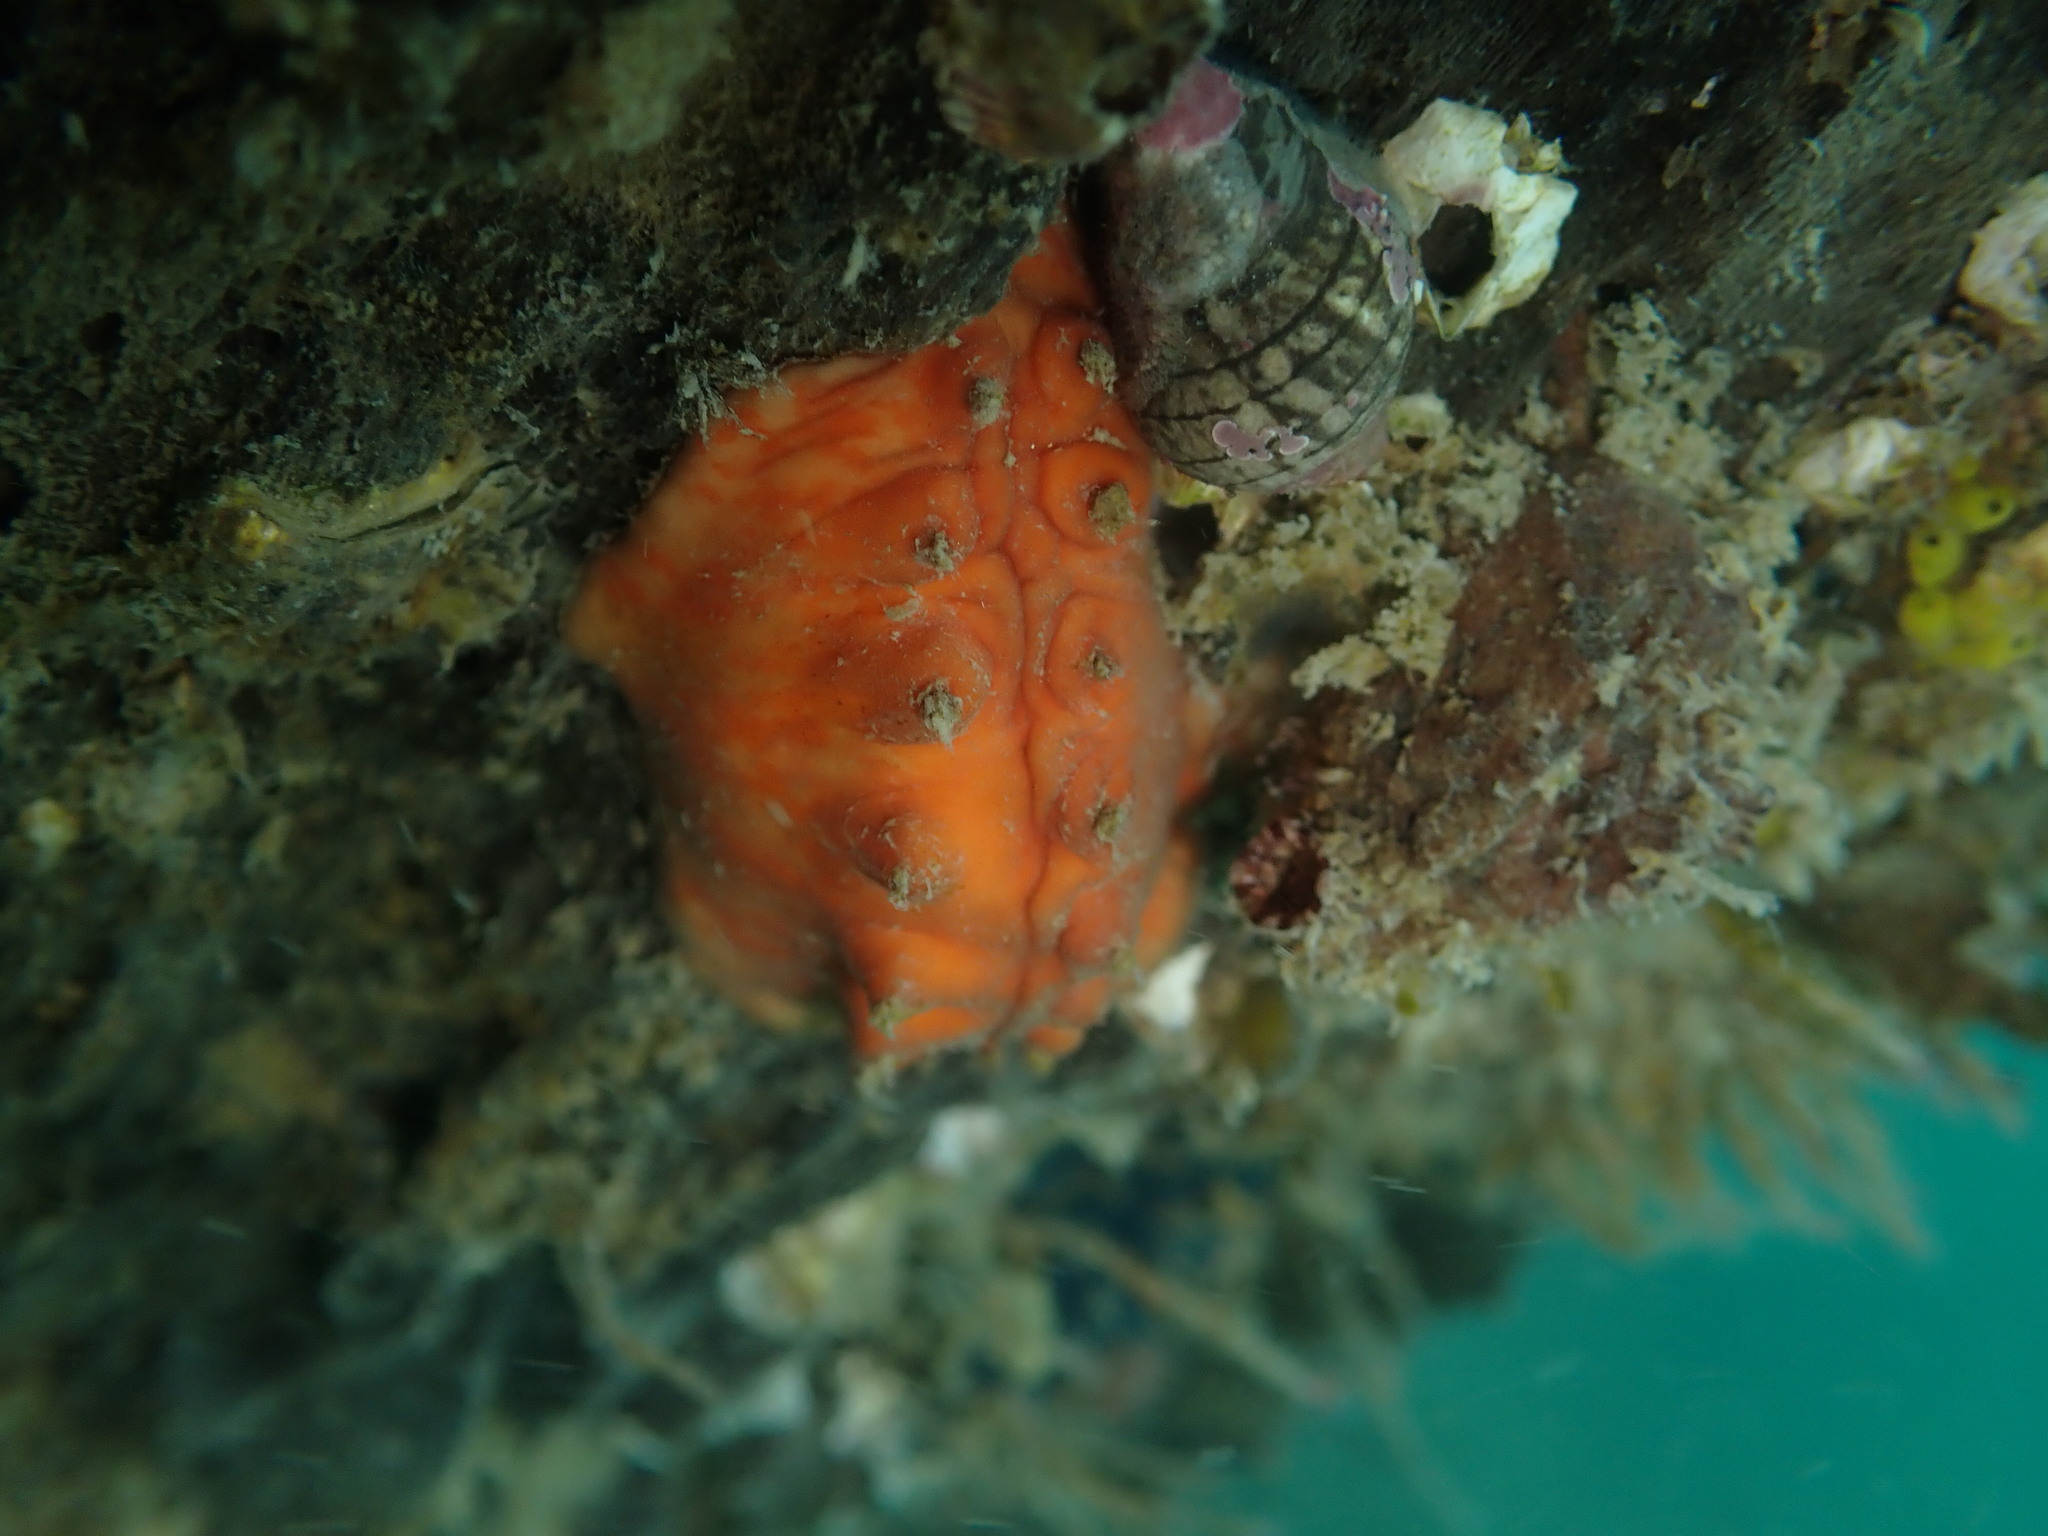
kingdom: Animalia
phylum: Mollusca
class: Polyplacophora
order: Chitonida
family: Acanthochitonidae
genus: Cryptoconchus
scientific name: Cryptoconchus porosus
